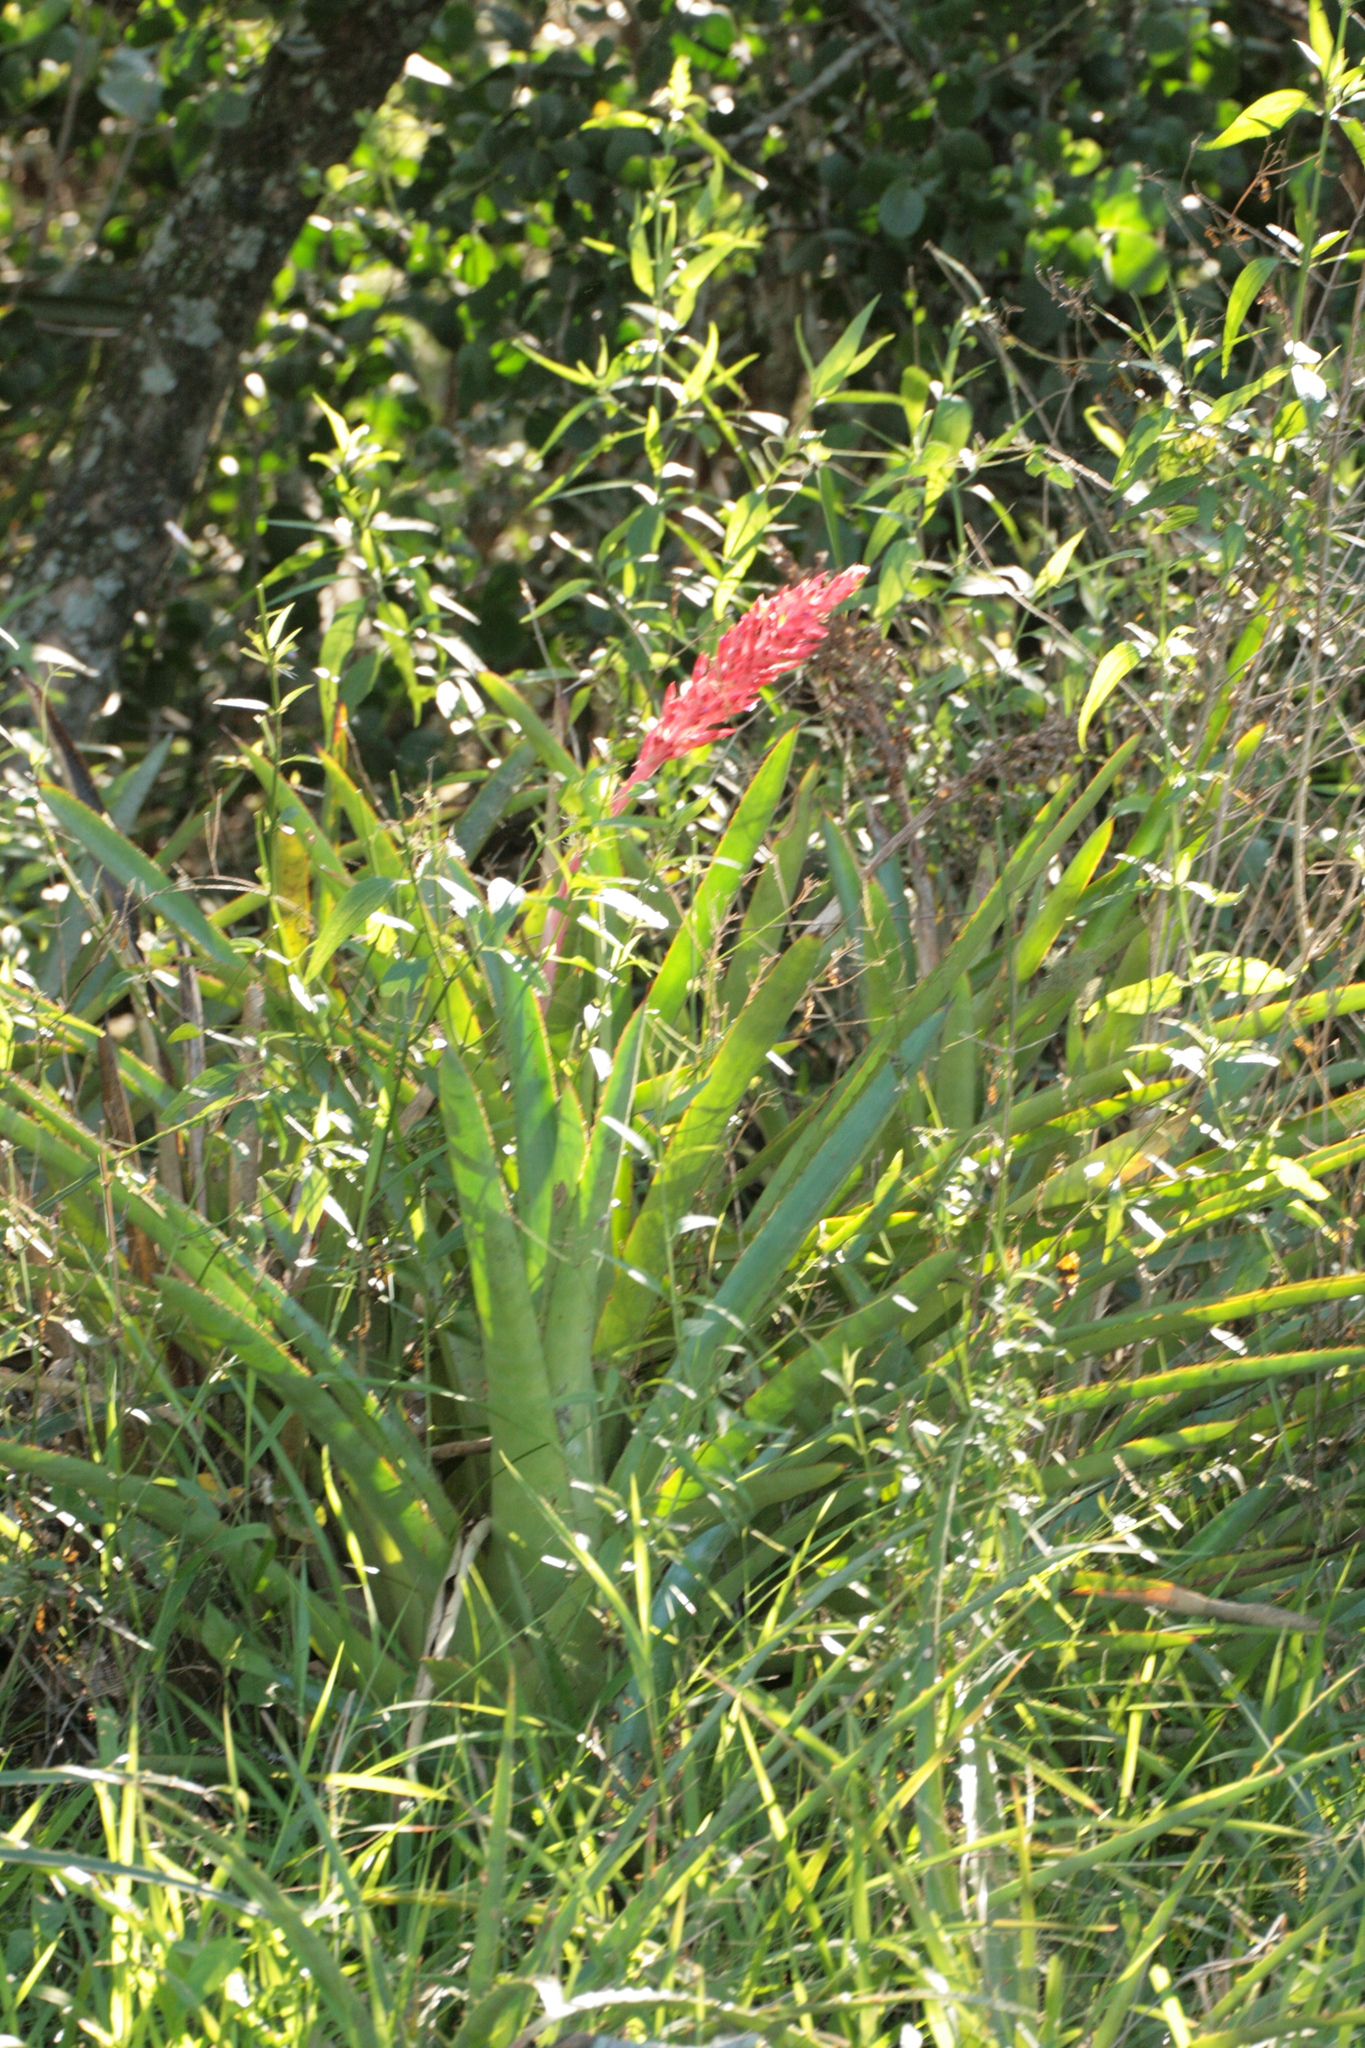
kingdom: Plantae
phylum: Tracheophyta
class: Liliopsida
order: Poales
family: Bromeliaceae
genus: Aechmea
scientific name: Aechmea distichantha
